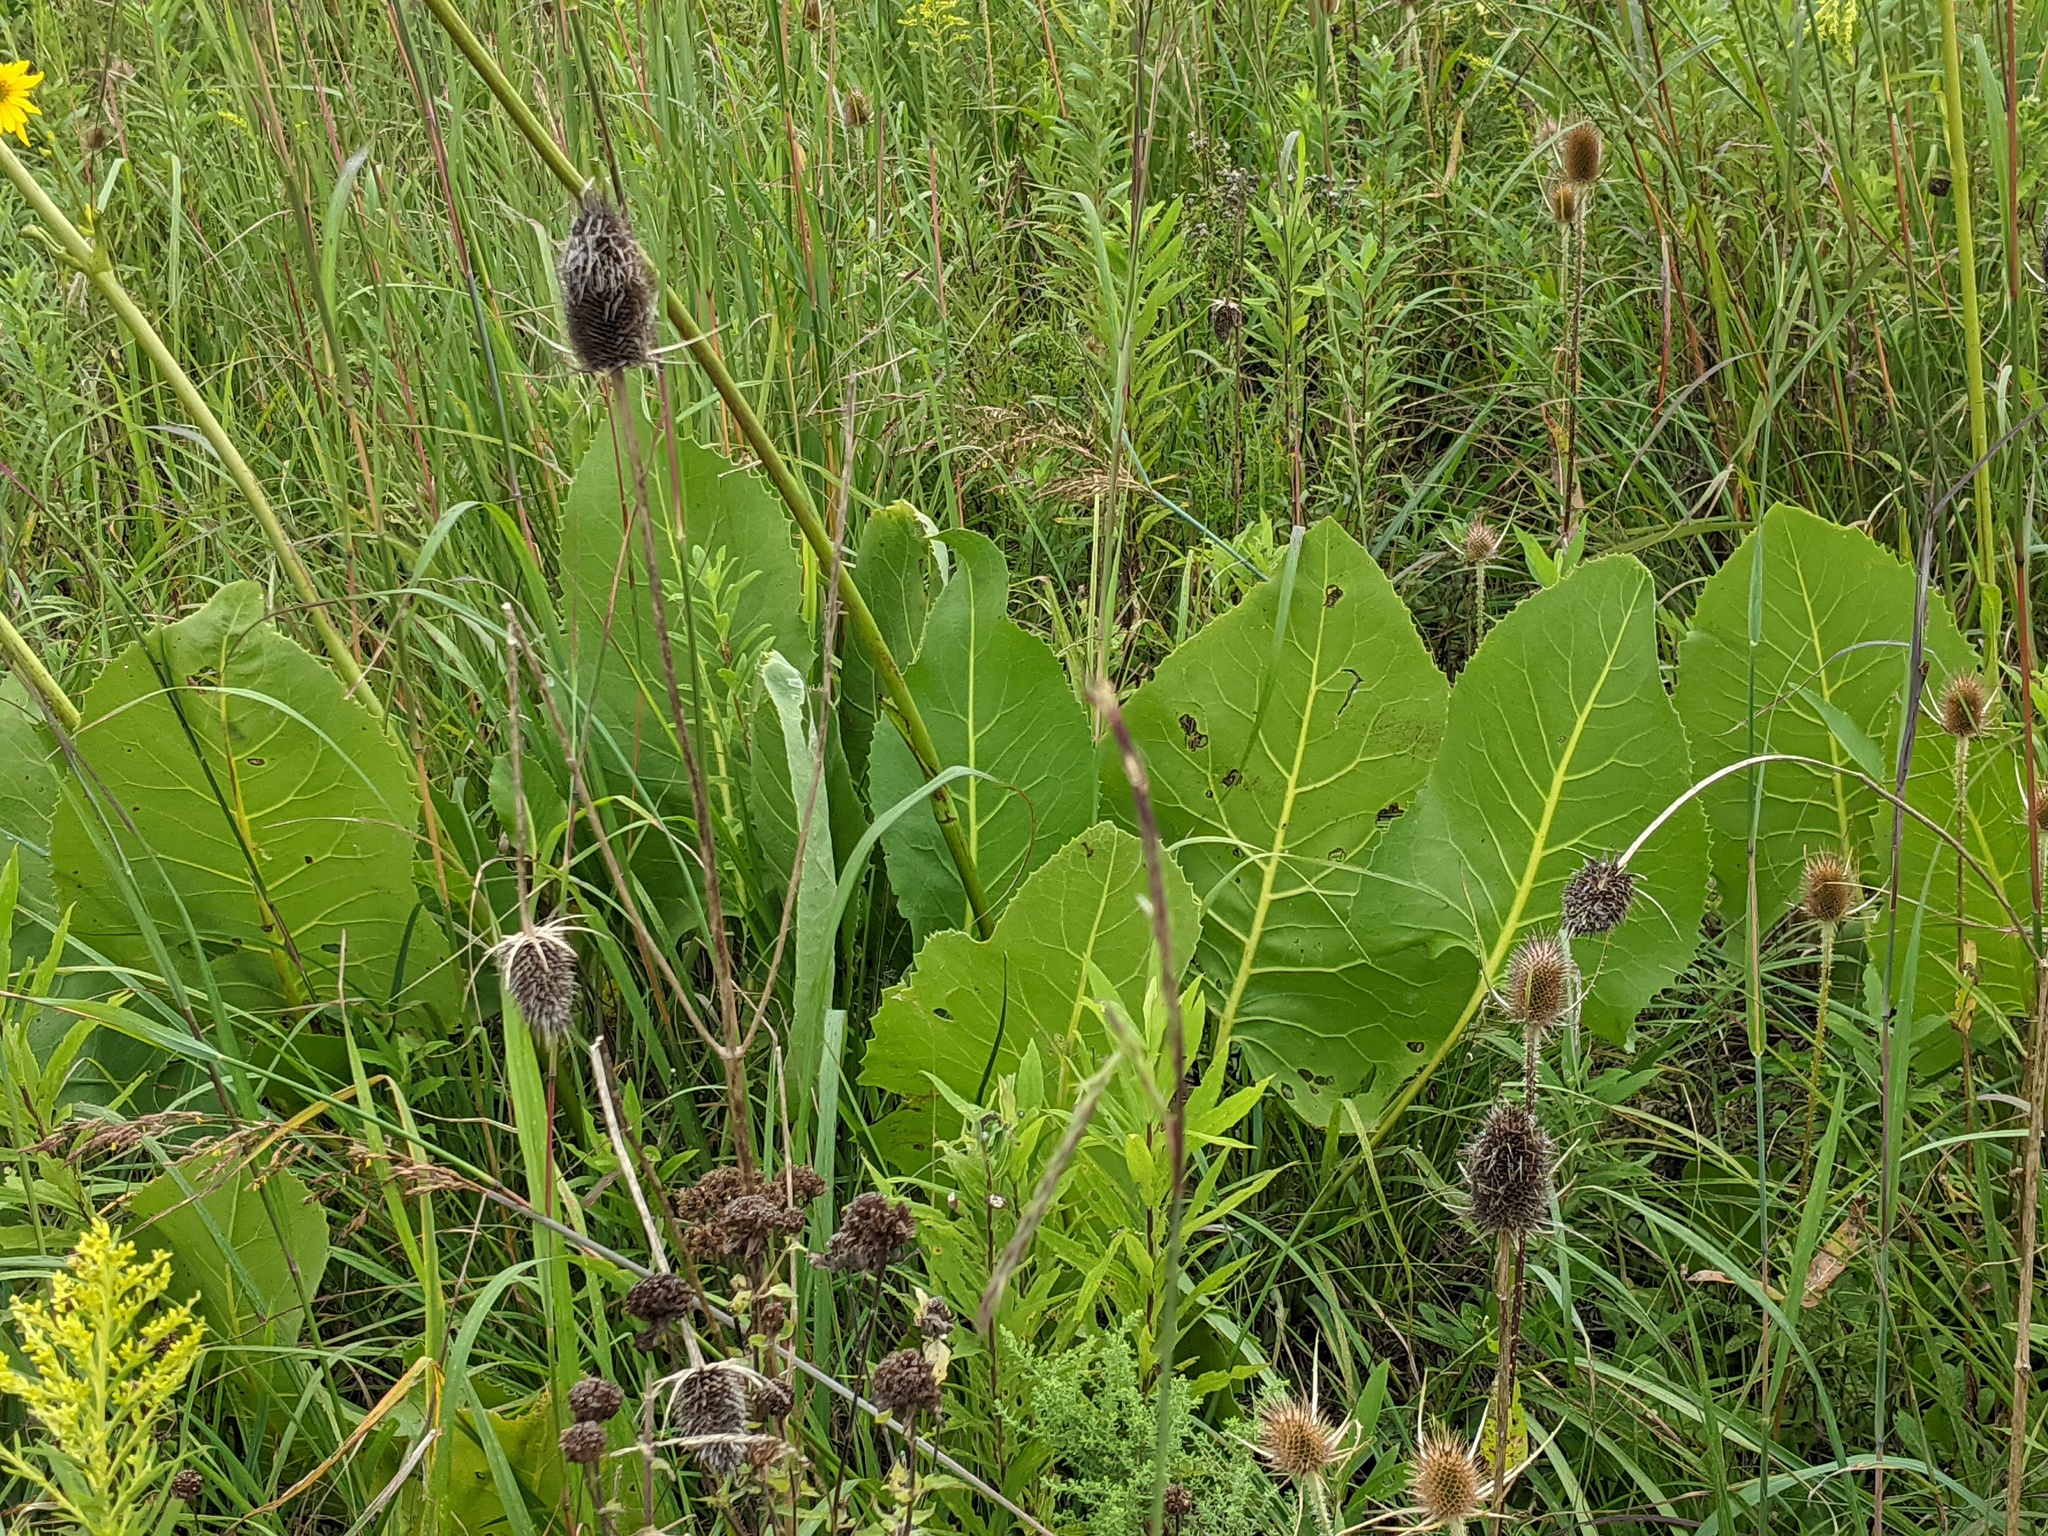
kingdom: Plantae
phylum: Tracheophyta
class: Magnoliopsida
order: Asterales
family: Asteraceae
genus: Silphium
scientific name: Silphium terebinthinaceum
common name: Basal-leaf rosinweed
